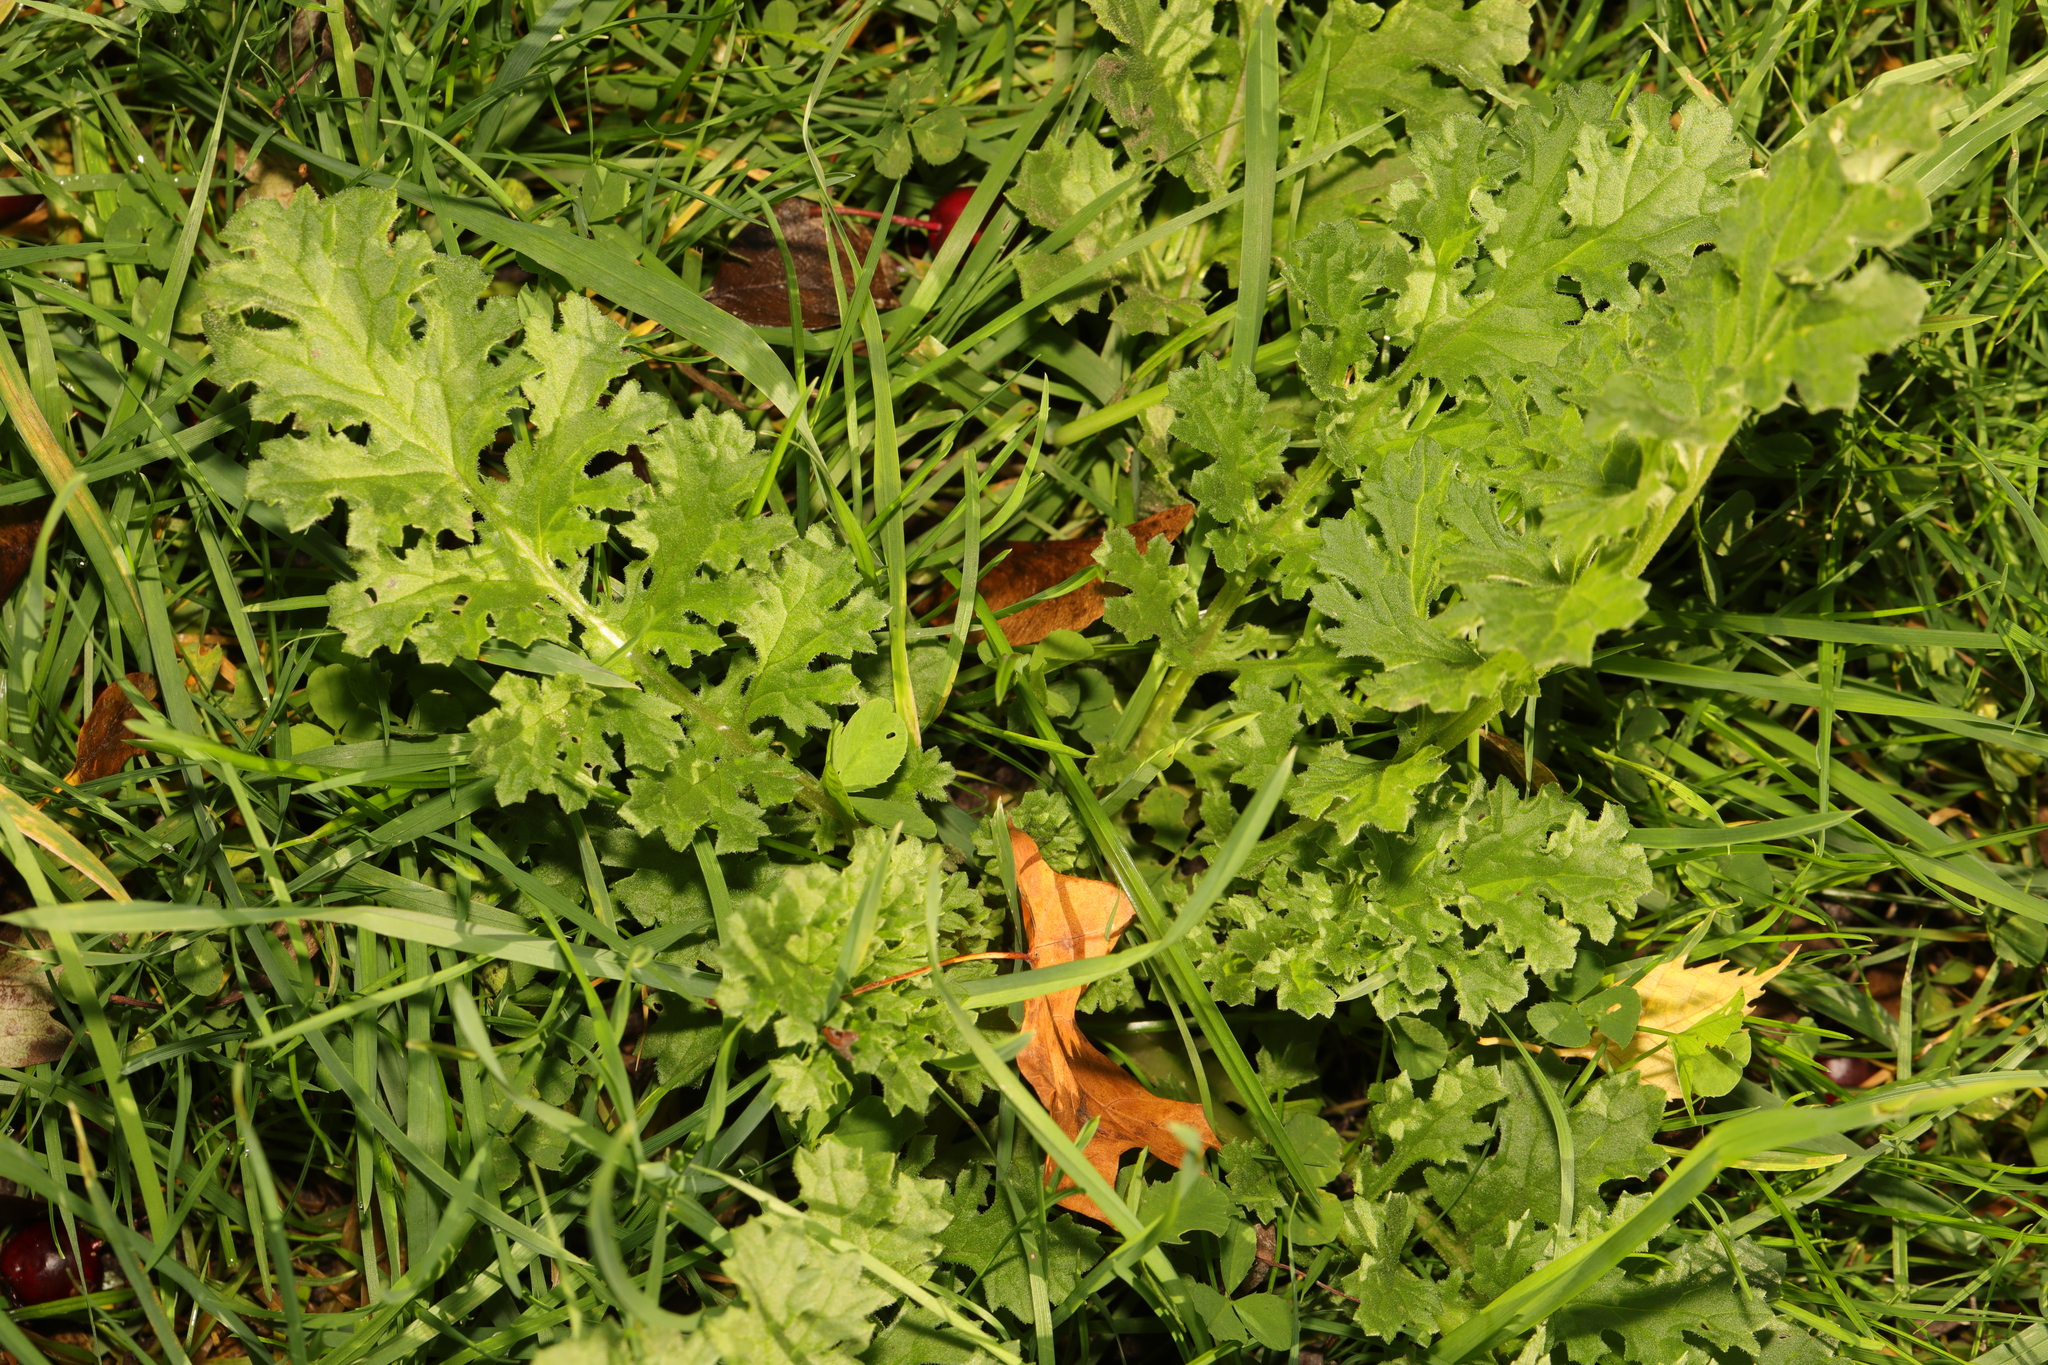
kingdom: Plantae
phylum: Tracheophyta
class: Magnoliopsida
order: Asterales
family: Asteraceae
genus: Jacobaea
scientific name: Jacobaea vulgaris
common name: Stinking willie
